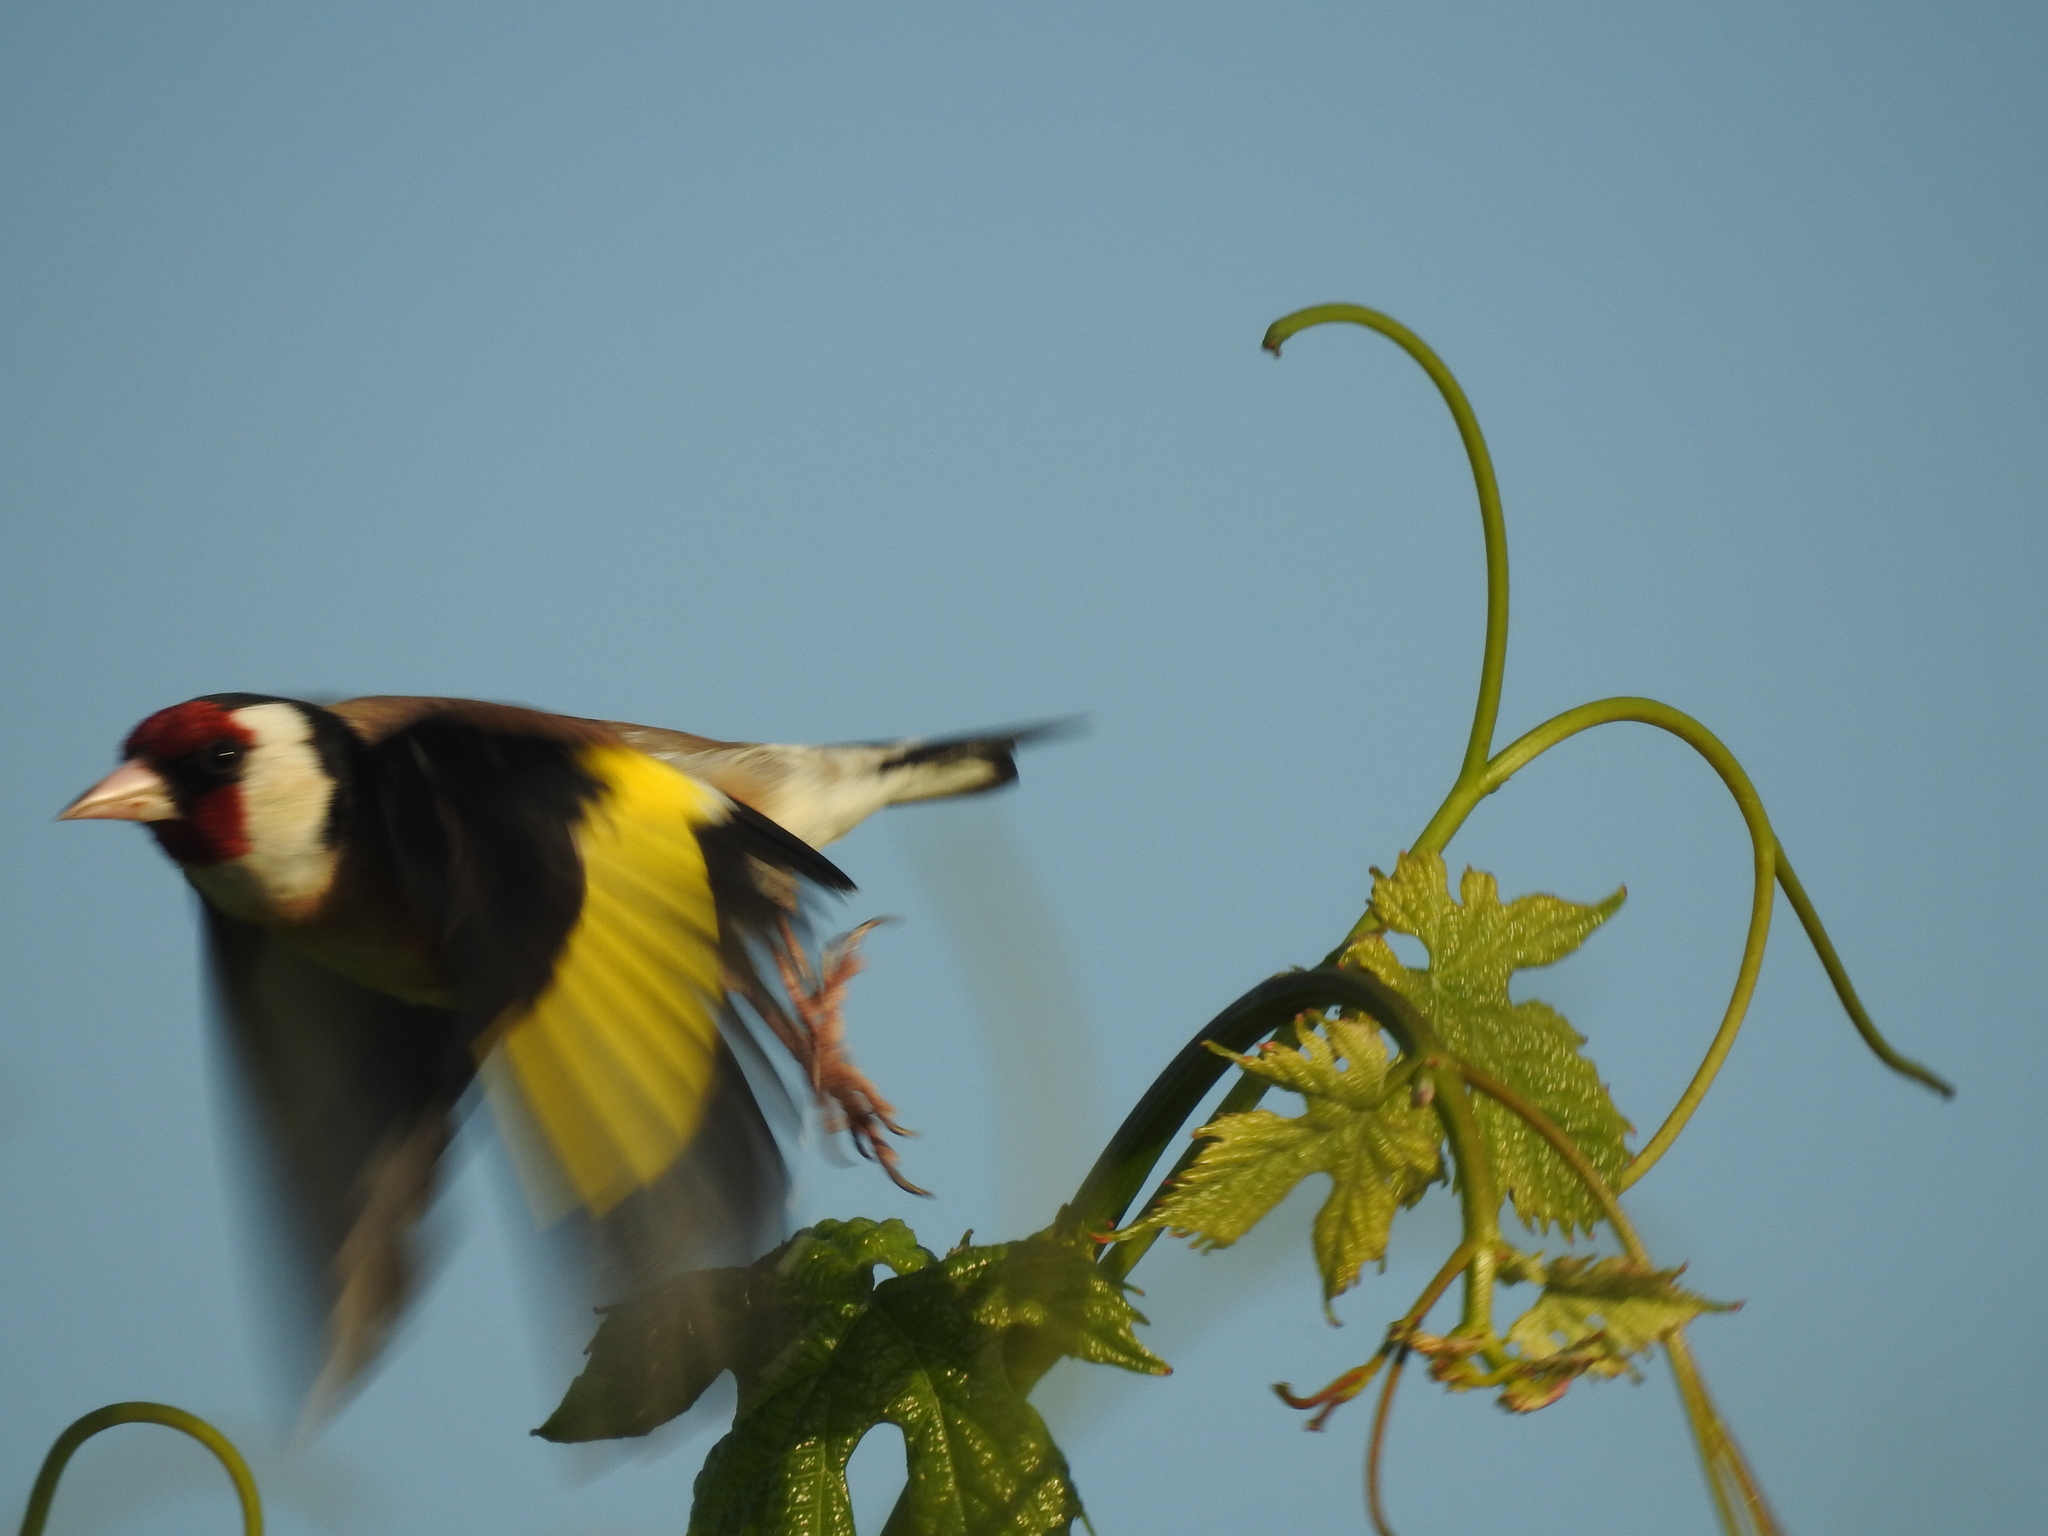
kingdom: Animalia
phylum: Chordata
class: Aves
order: Passeriformes
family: Fringillidae
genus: Carduelis
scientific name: Carduelis carduelis
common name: European goldfinch
